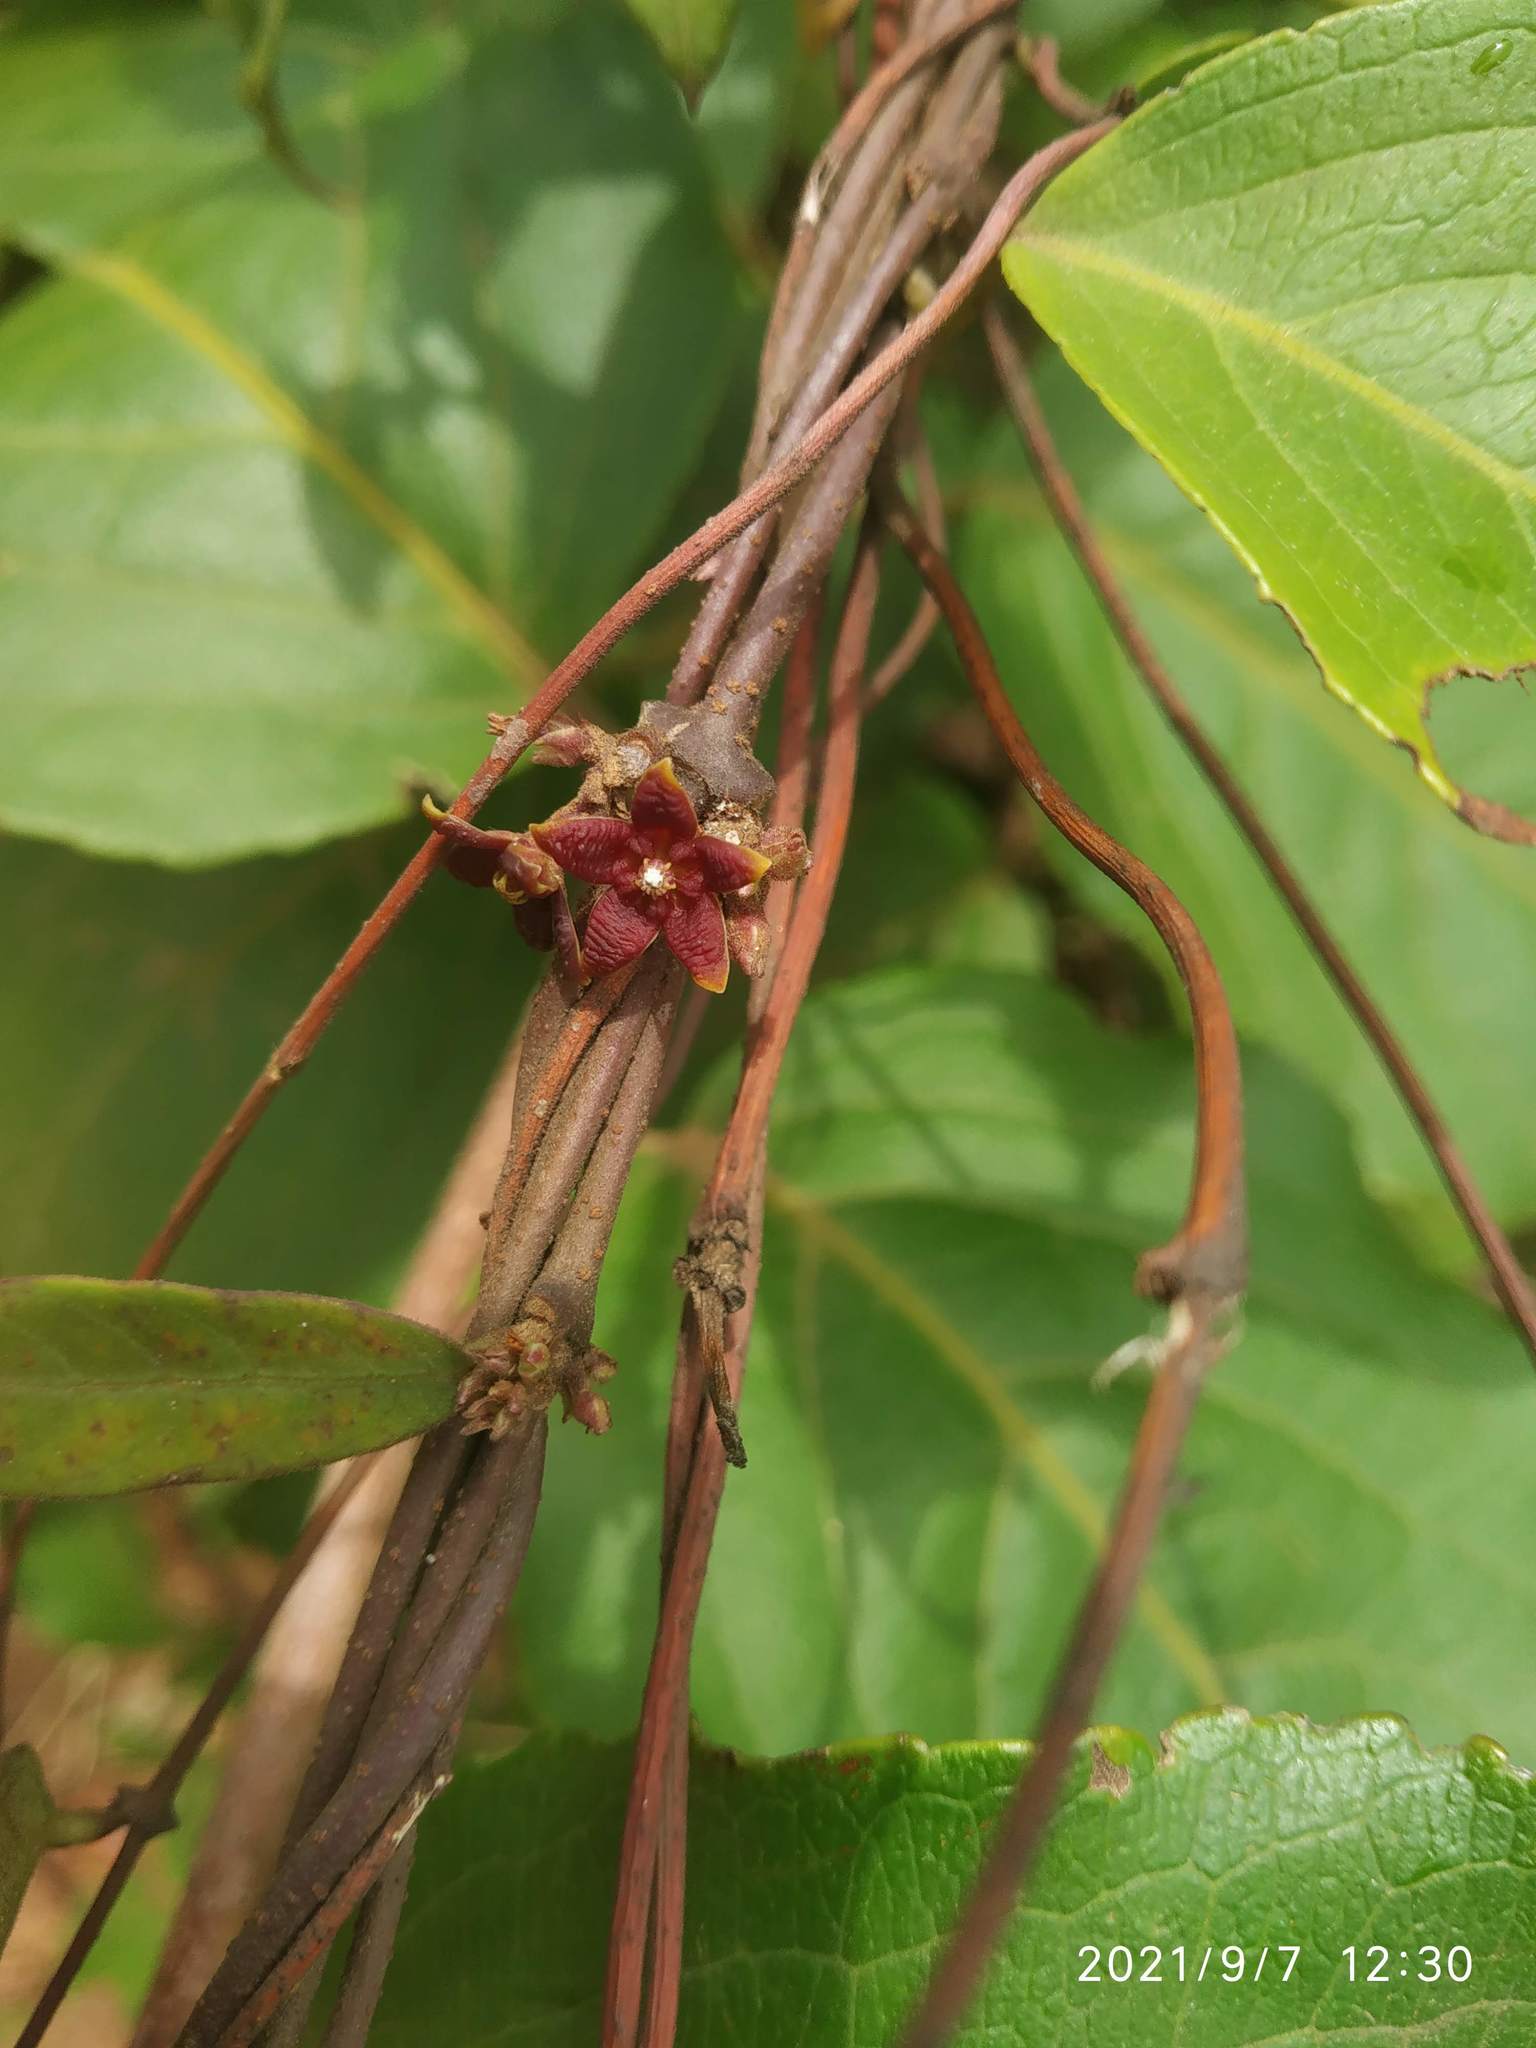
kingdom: Plantae
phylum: Tracheophyta
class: Magnoliopsida
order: Gentianales
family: Apocynaceae
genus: Hemidesmus
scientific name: Hemidesmus indicus
